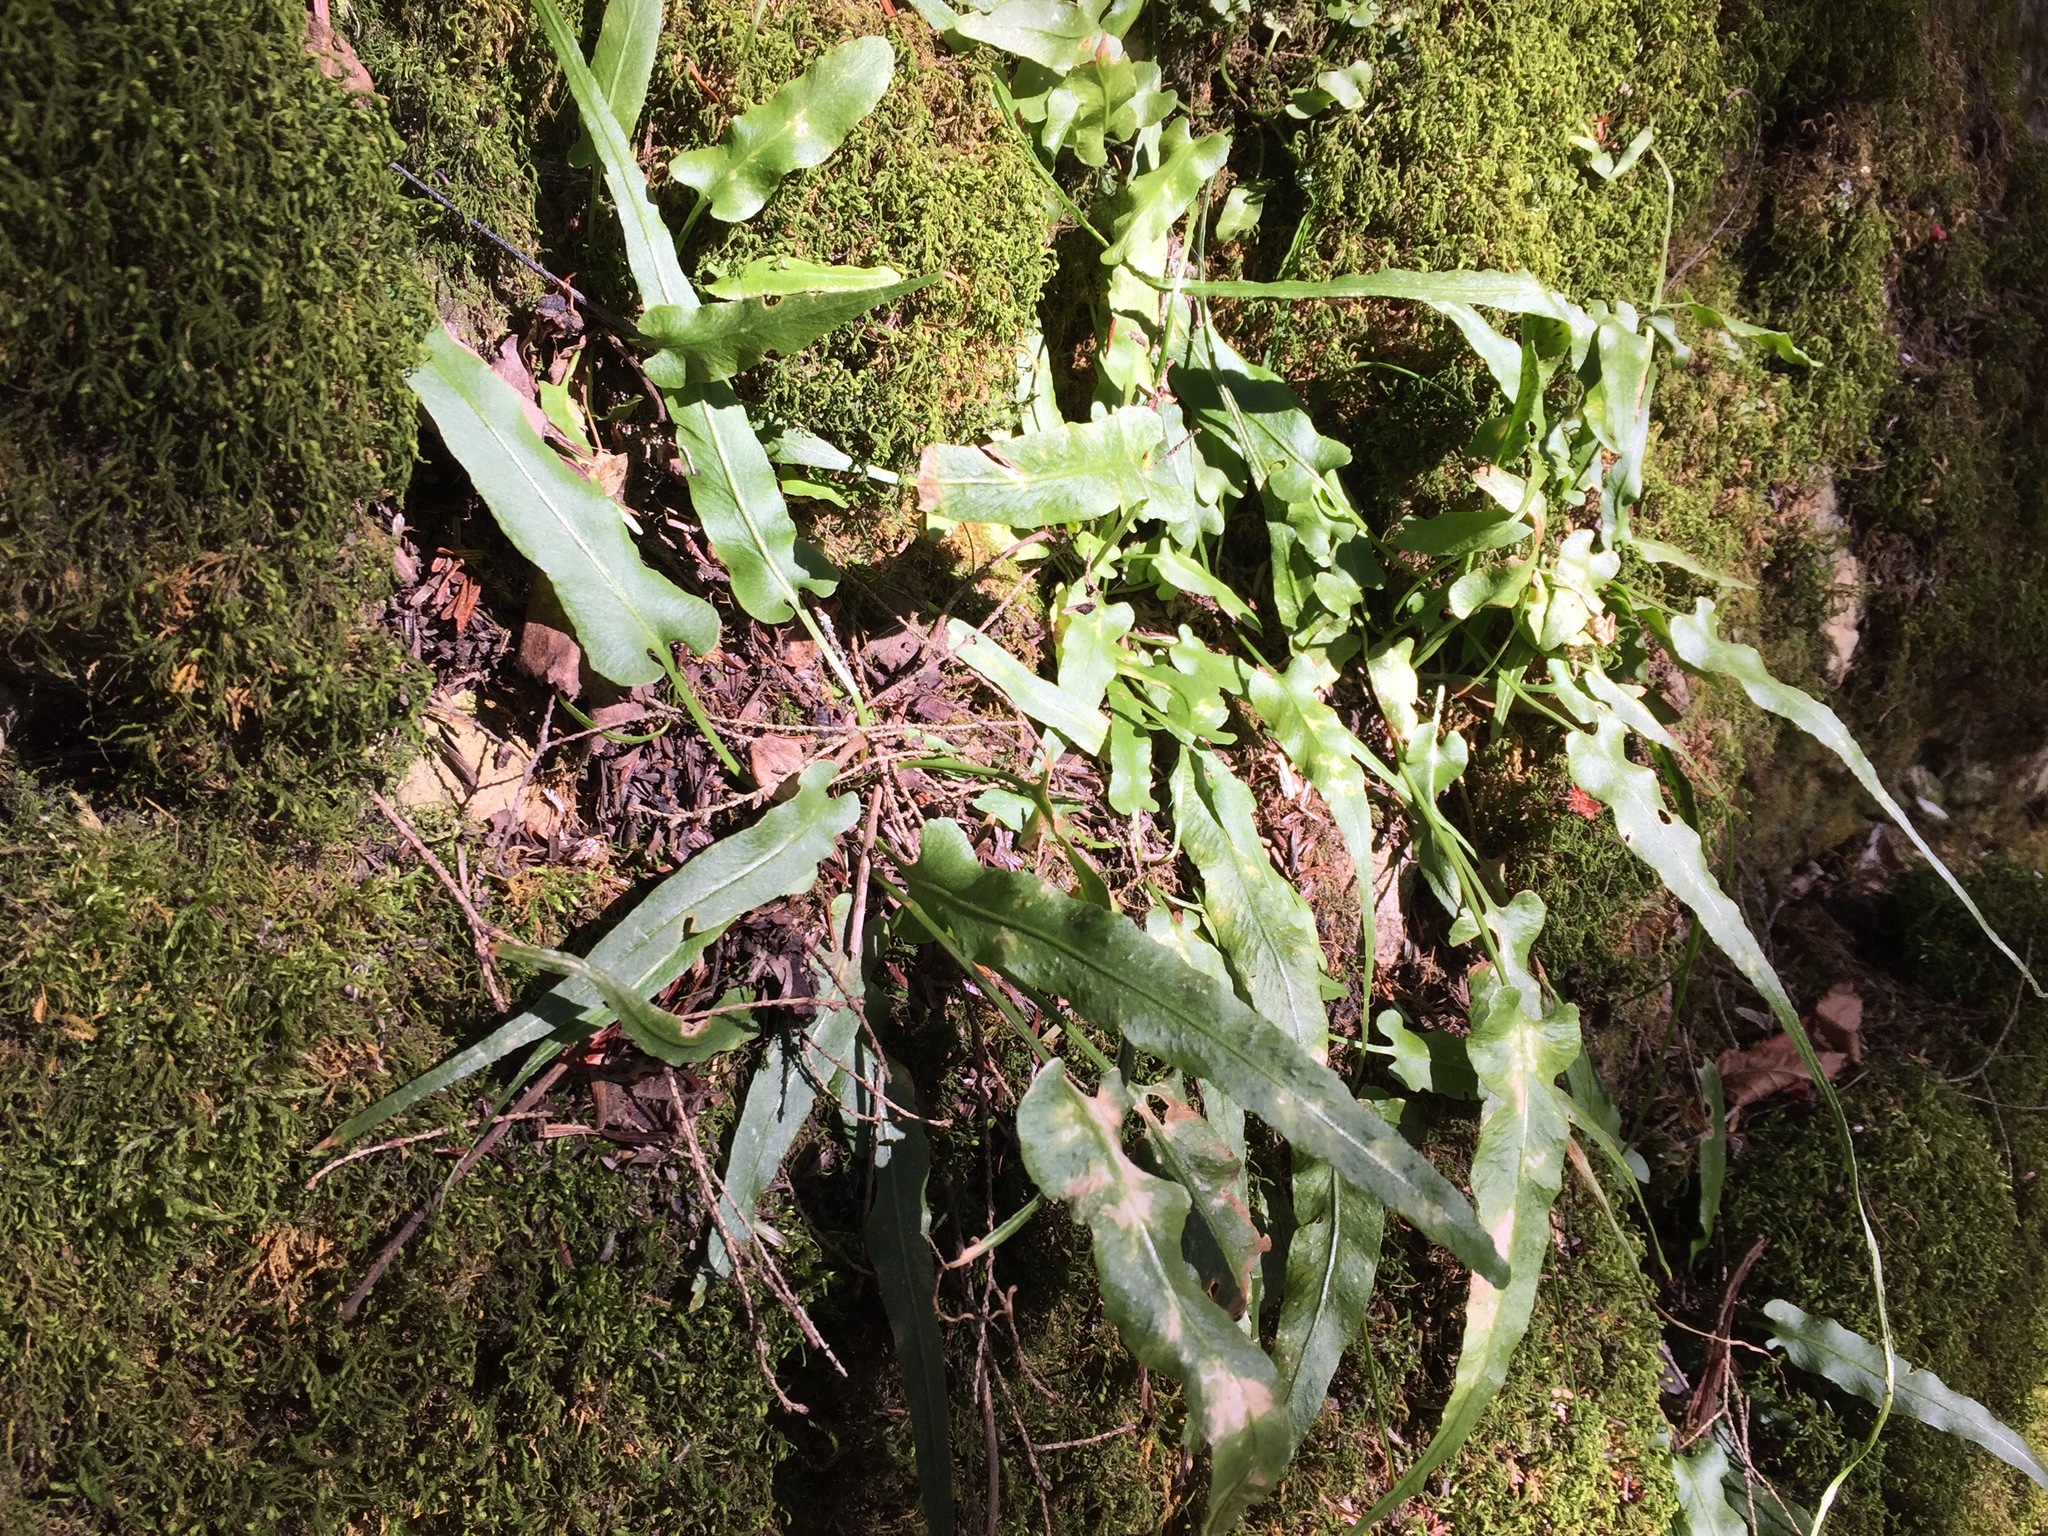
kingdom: Plantae
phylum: Tracheophyta
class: Polypodiopsida
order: Polypodiales
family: Aspleniaceae
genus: Asplenium
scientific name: Asplenium rhizophyllum
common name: Walking fern
